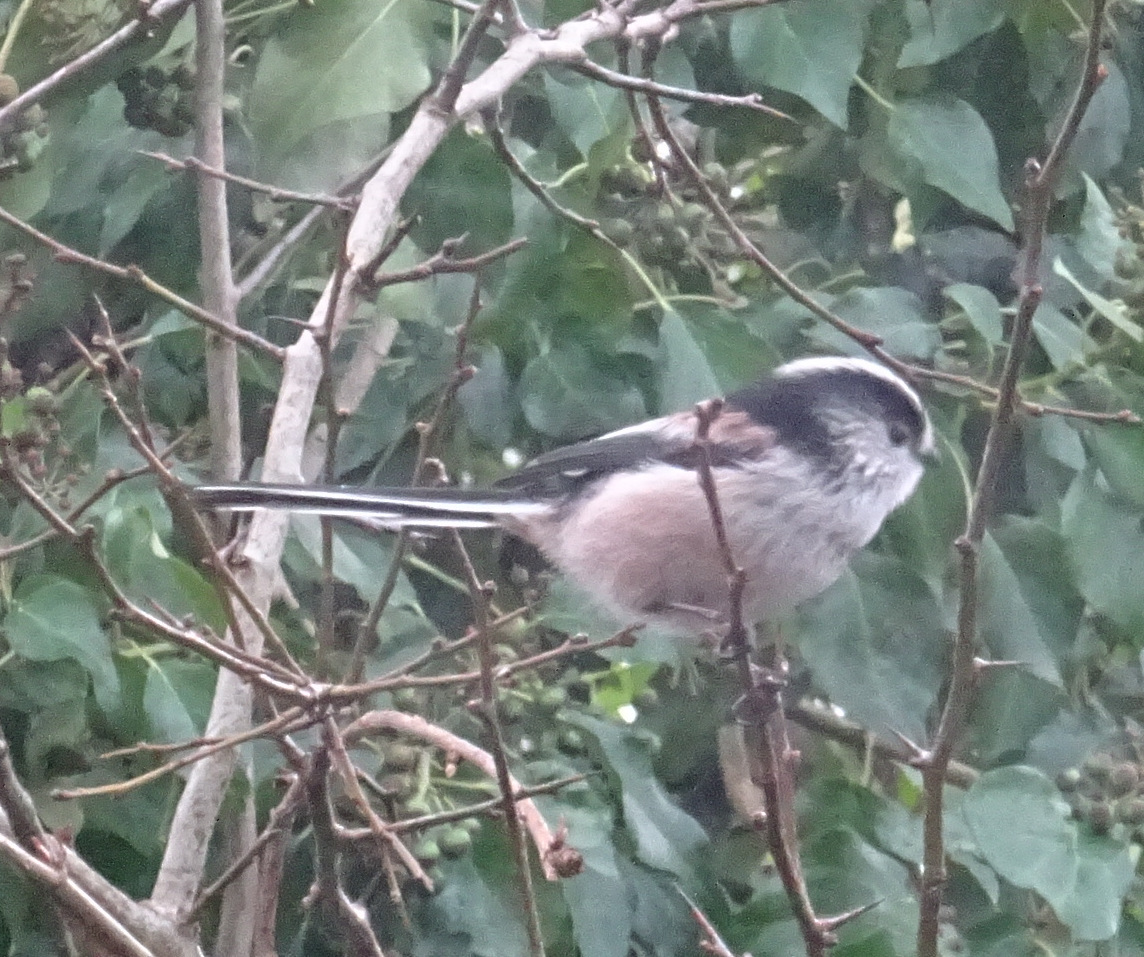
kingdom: Animalia
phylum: Chordata
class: Aves
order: Passeriformes
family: Aegithalidae
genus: Aegithalos
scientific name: Aegithalos caudatus
